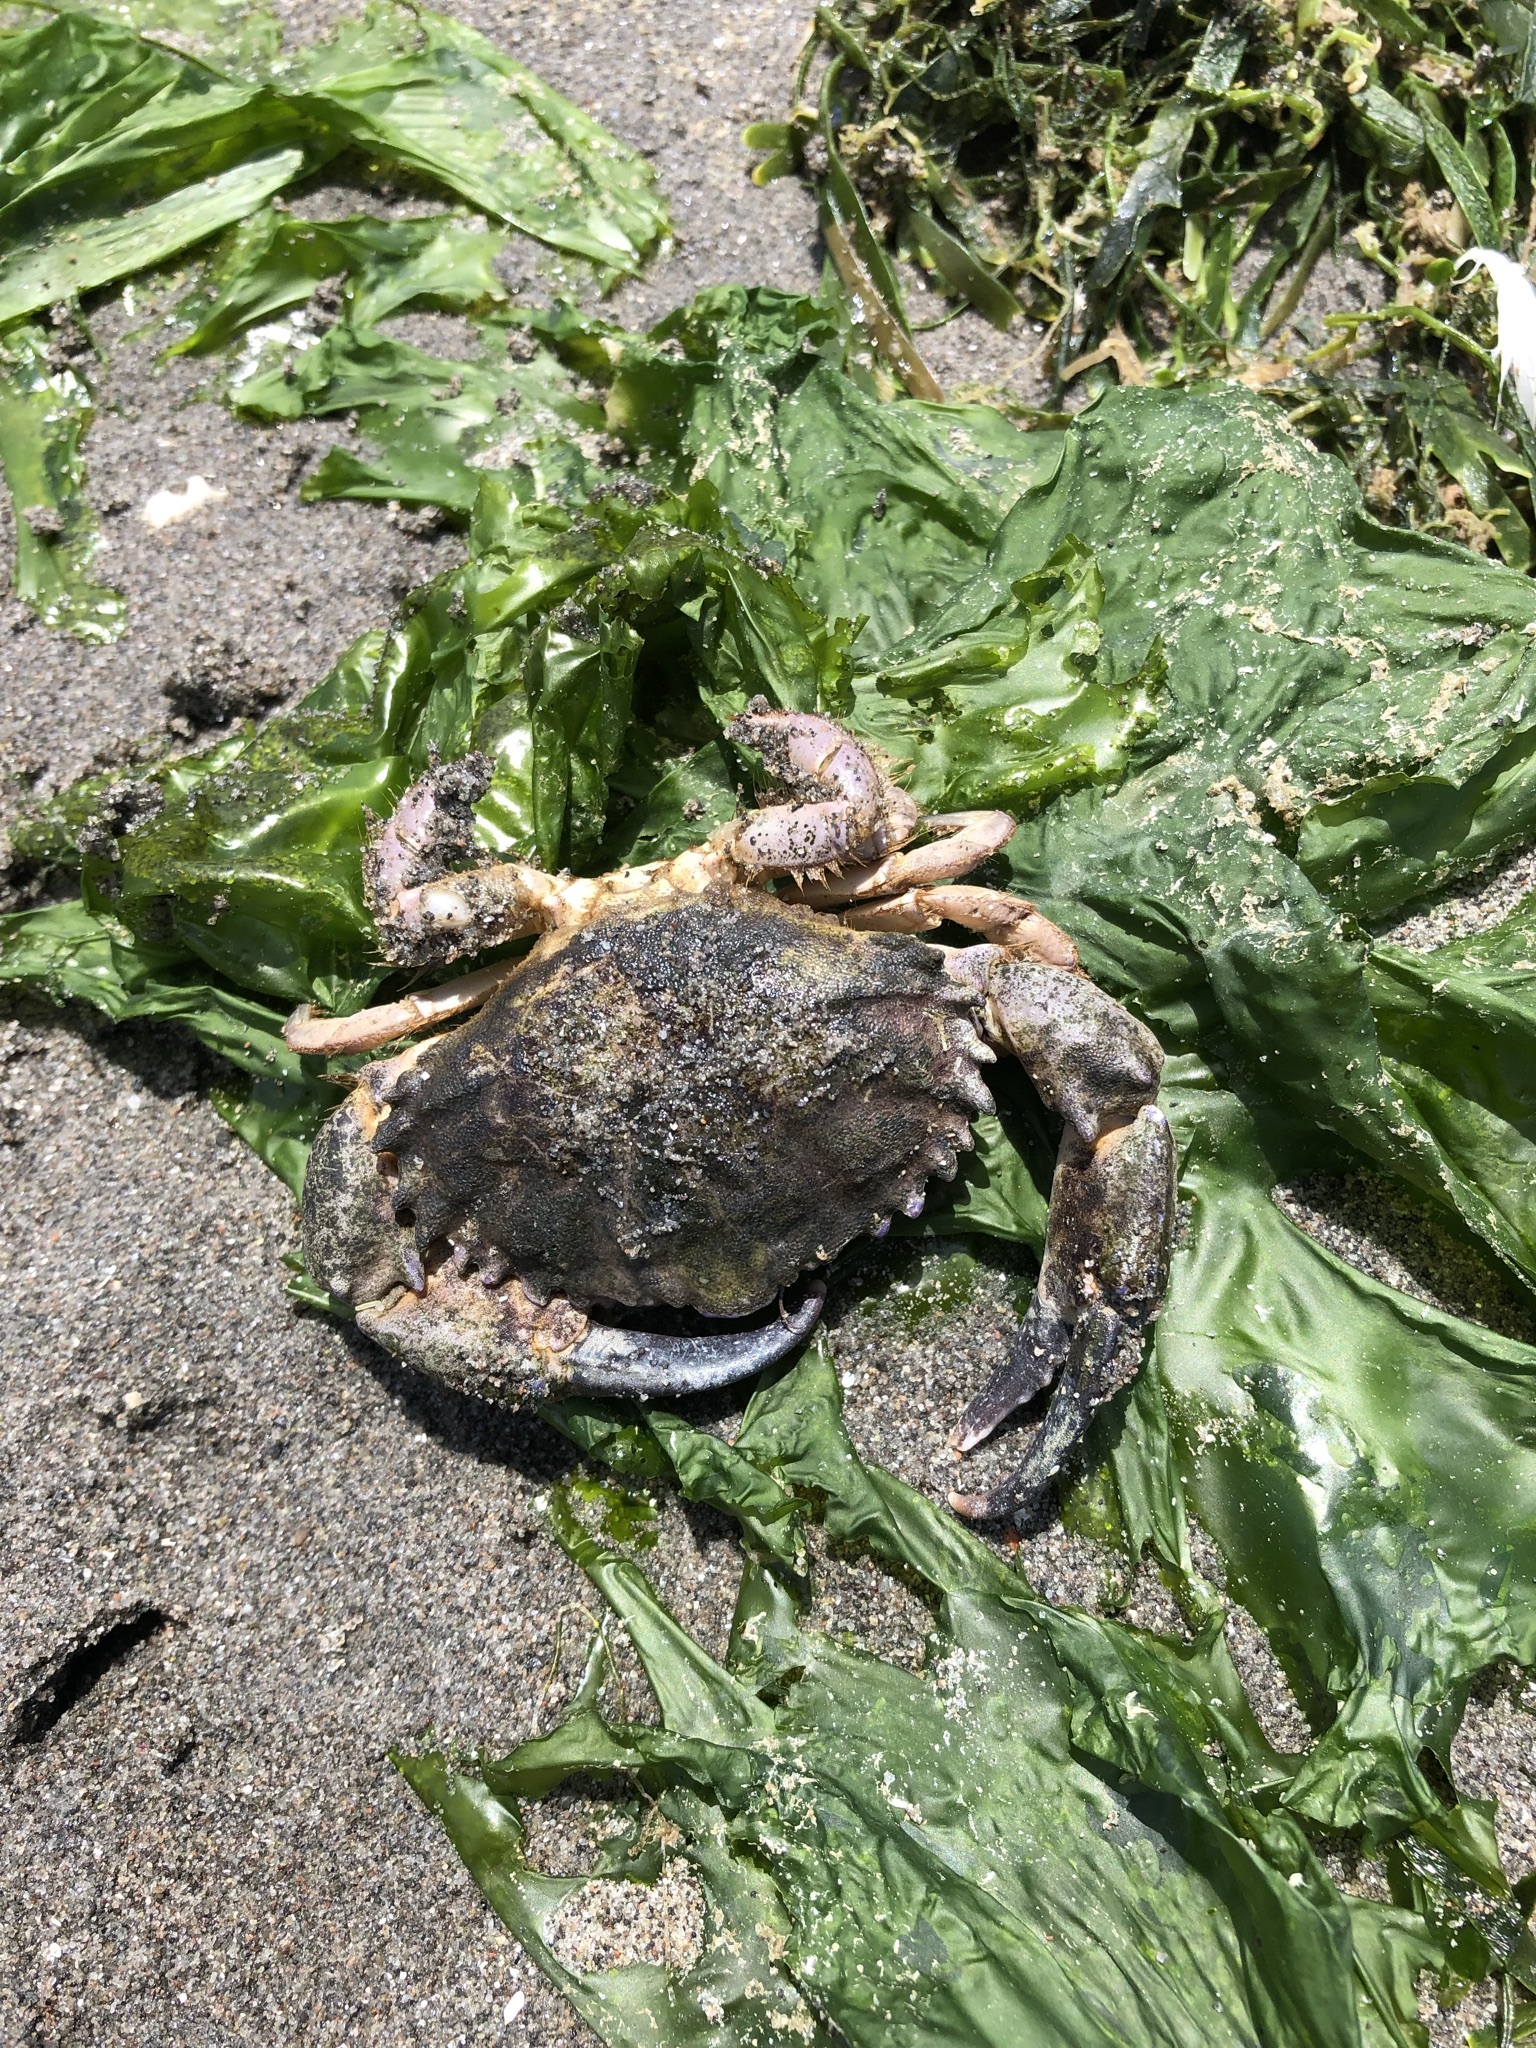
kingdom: Animalia
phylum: Arthropoda
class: Malacostraca
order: Decapoda
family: Xanthidae
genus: Cycloxanthops
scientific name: Cycloxanthops sexdecimdentatus
